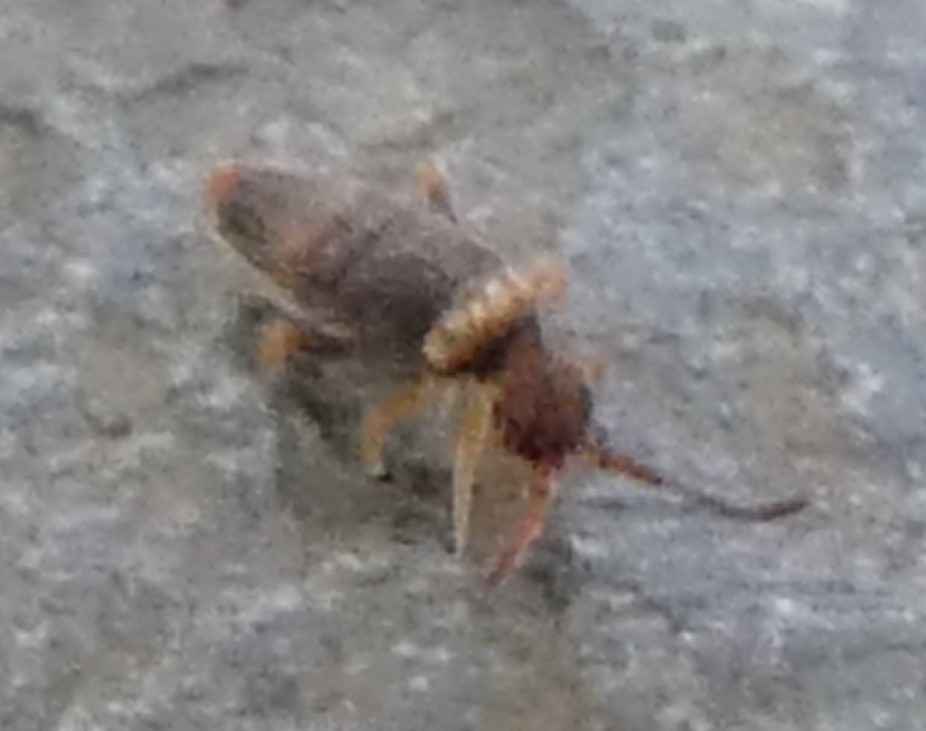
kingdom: Animalia
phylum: Arthropoda
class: Collembola
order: Entomobryomorpha
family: Entomobryidae
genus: Entomobrya
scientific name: Entomobrya albocincta
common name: Springtail
